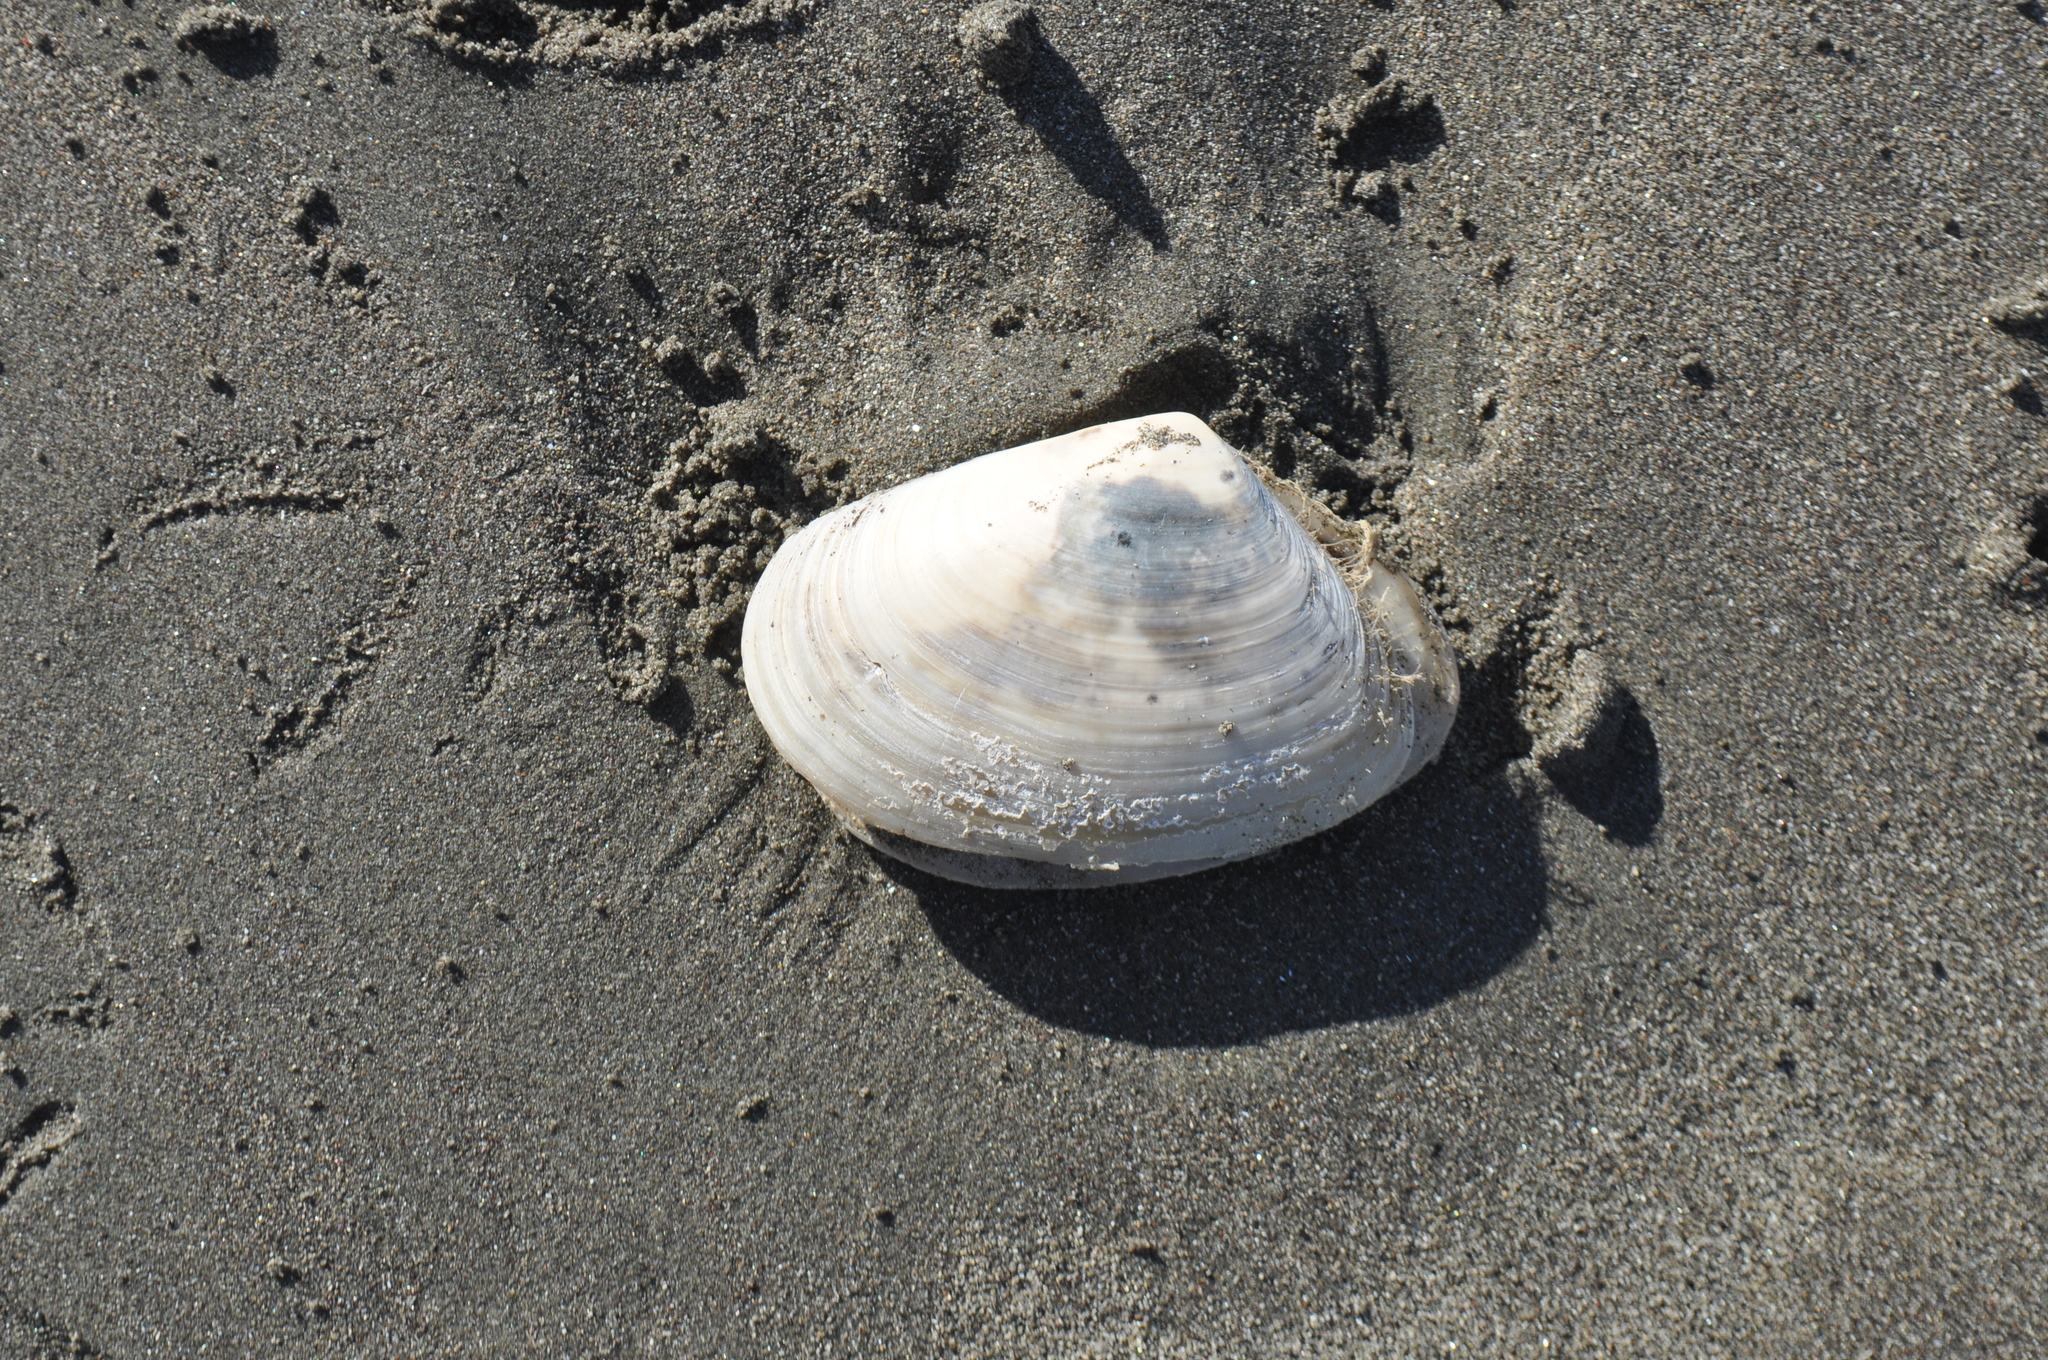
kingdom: Animalia
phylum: Mollusca
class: Bivalvia
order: Venerida
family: Mesodesmatidae
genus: Paphies
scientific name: Paphies donacina
